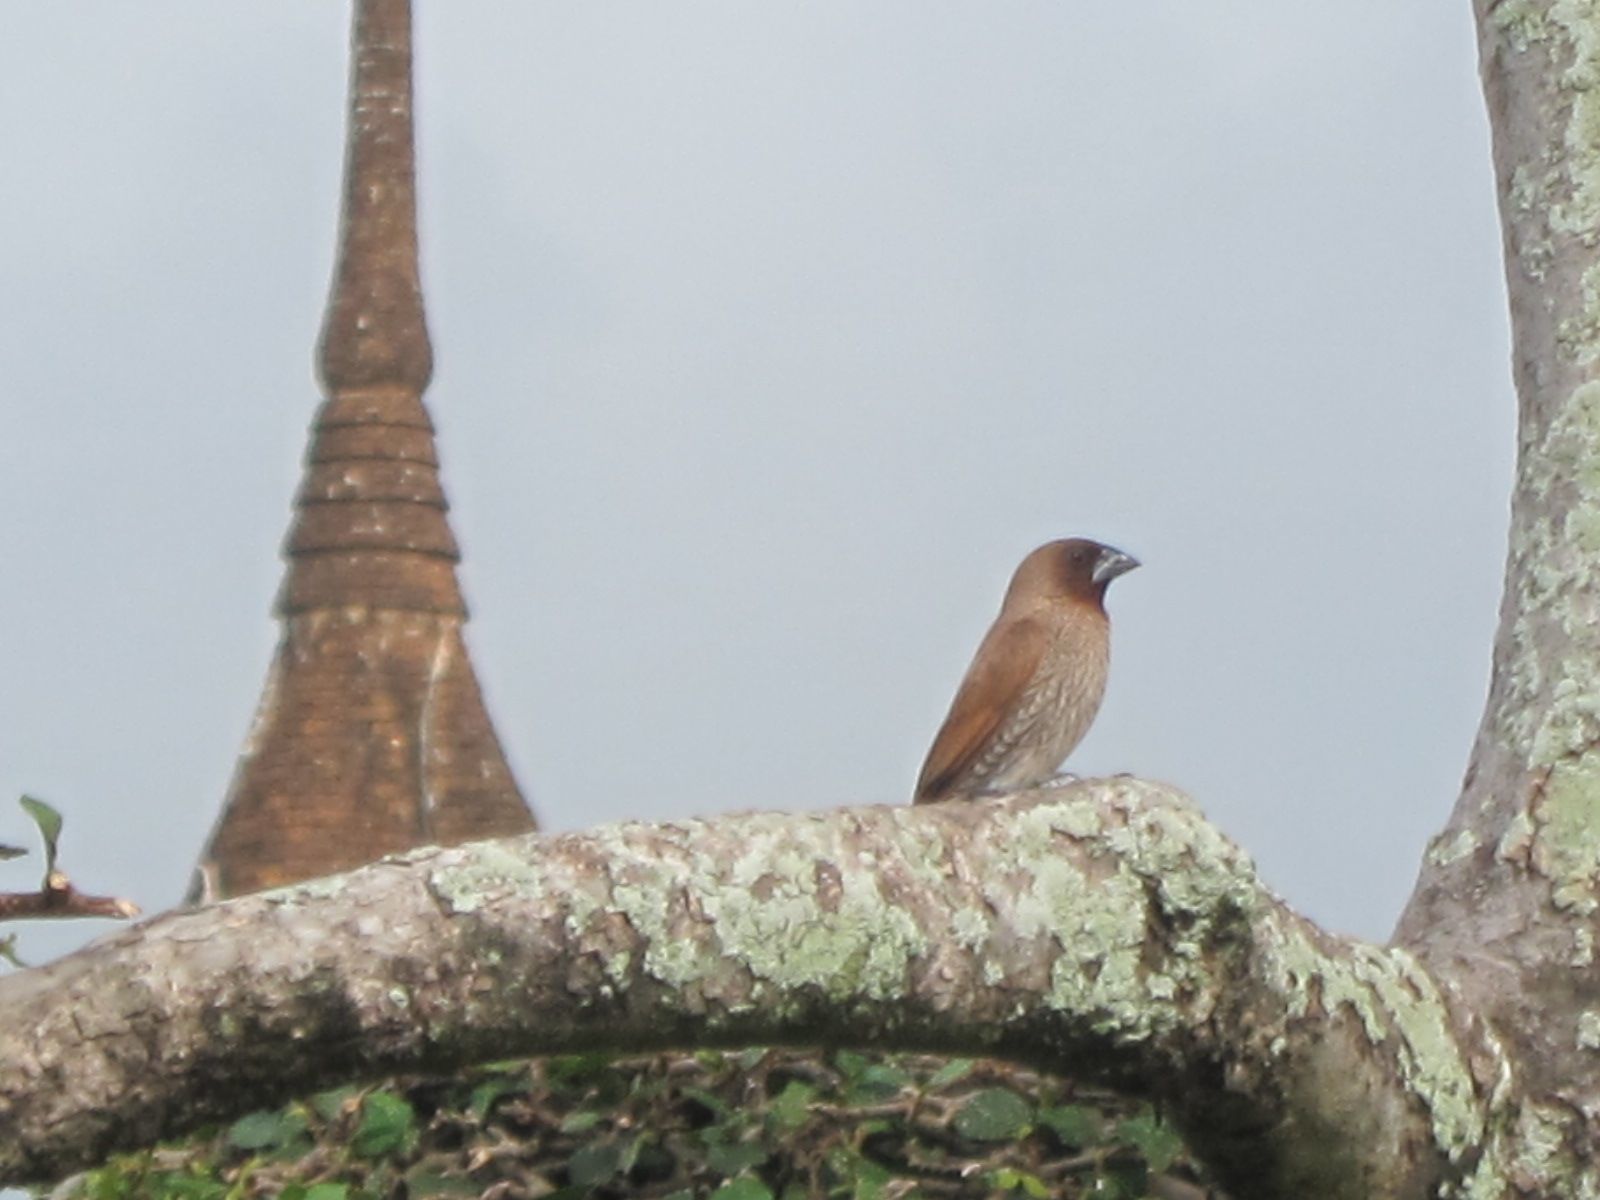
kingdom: Animalia
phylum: Chordata
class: Aves
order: Passeriformes
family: Estrildidae
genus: Lonchura
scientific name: Lonchura punctulata
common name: Scaly-breasted munia
